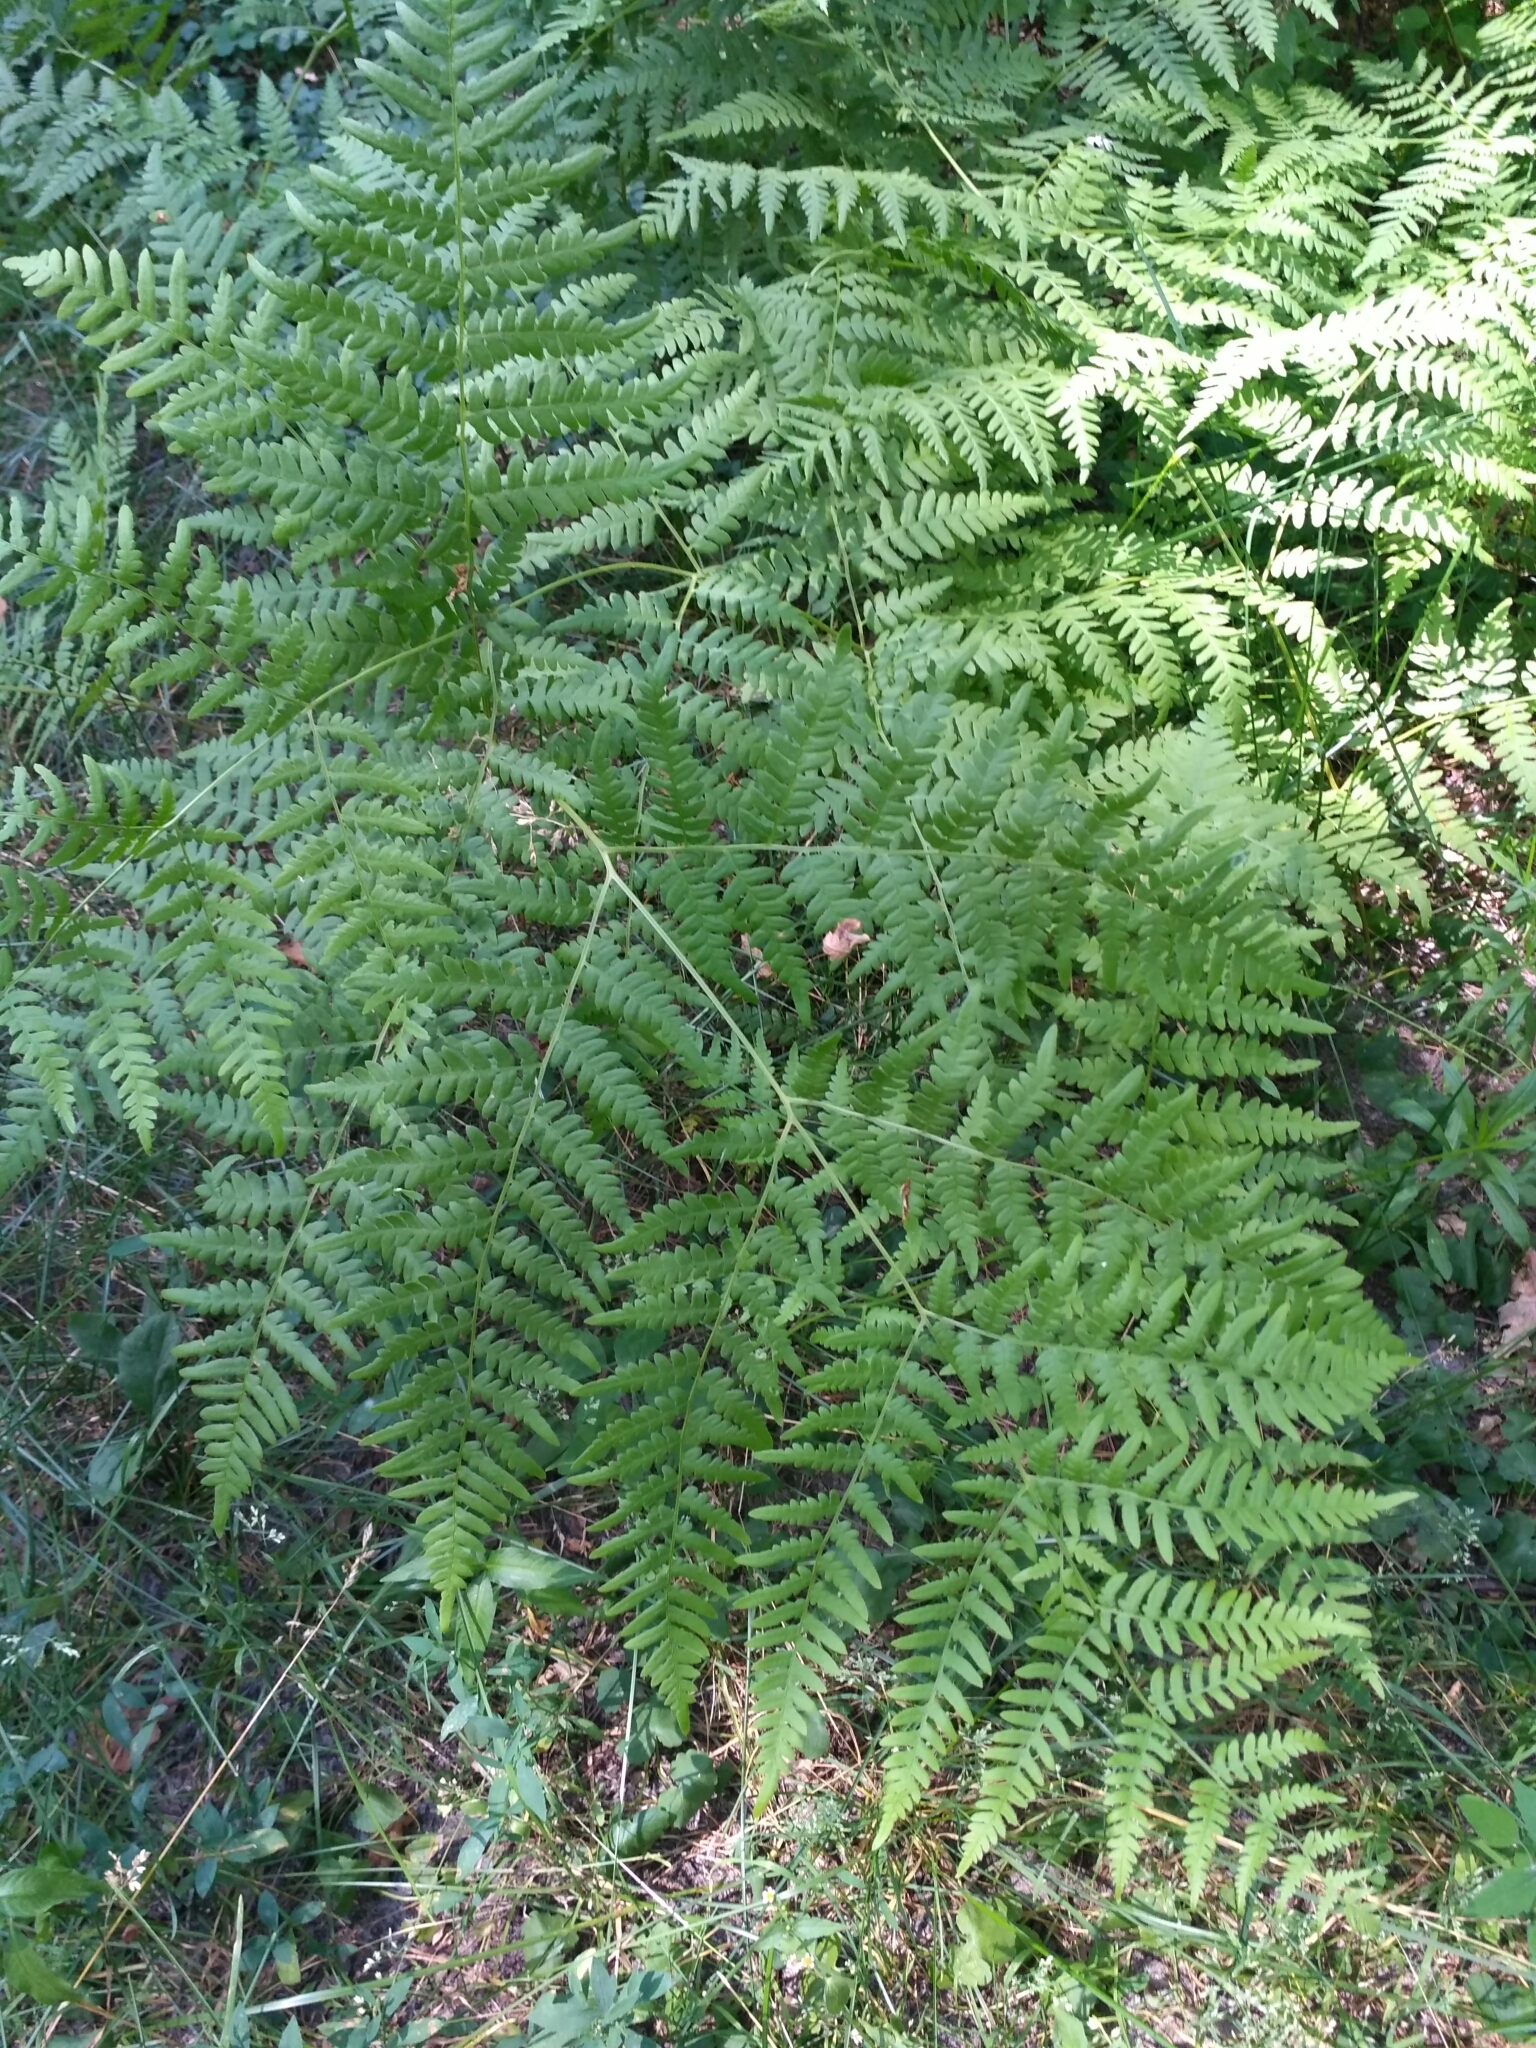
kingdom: Plantae
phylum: Tracheophyta
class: Polypodiopsida
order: Polypodiales
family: Dennstaedtiaceae
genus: Pteridium
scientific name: Pteridium aquilinum
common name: Bracken
